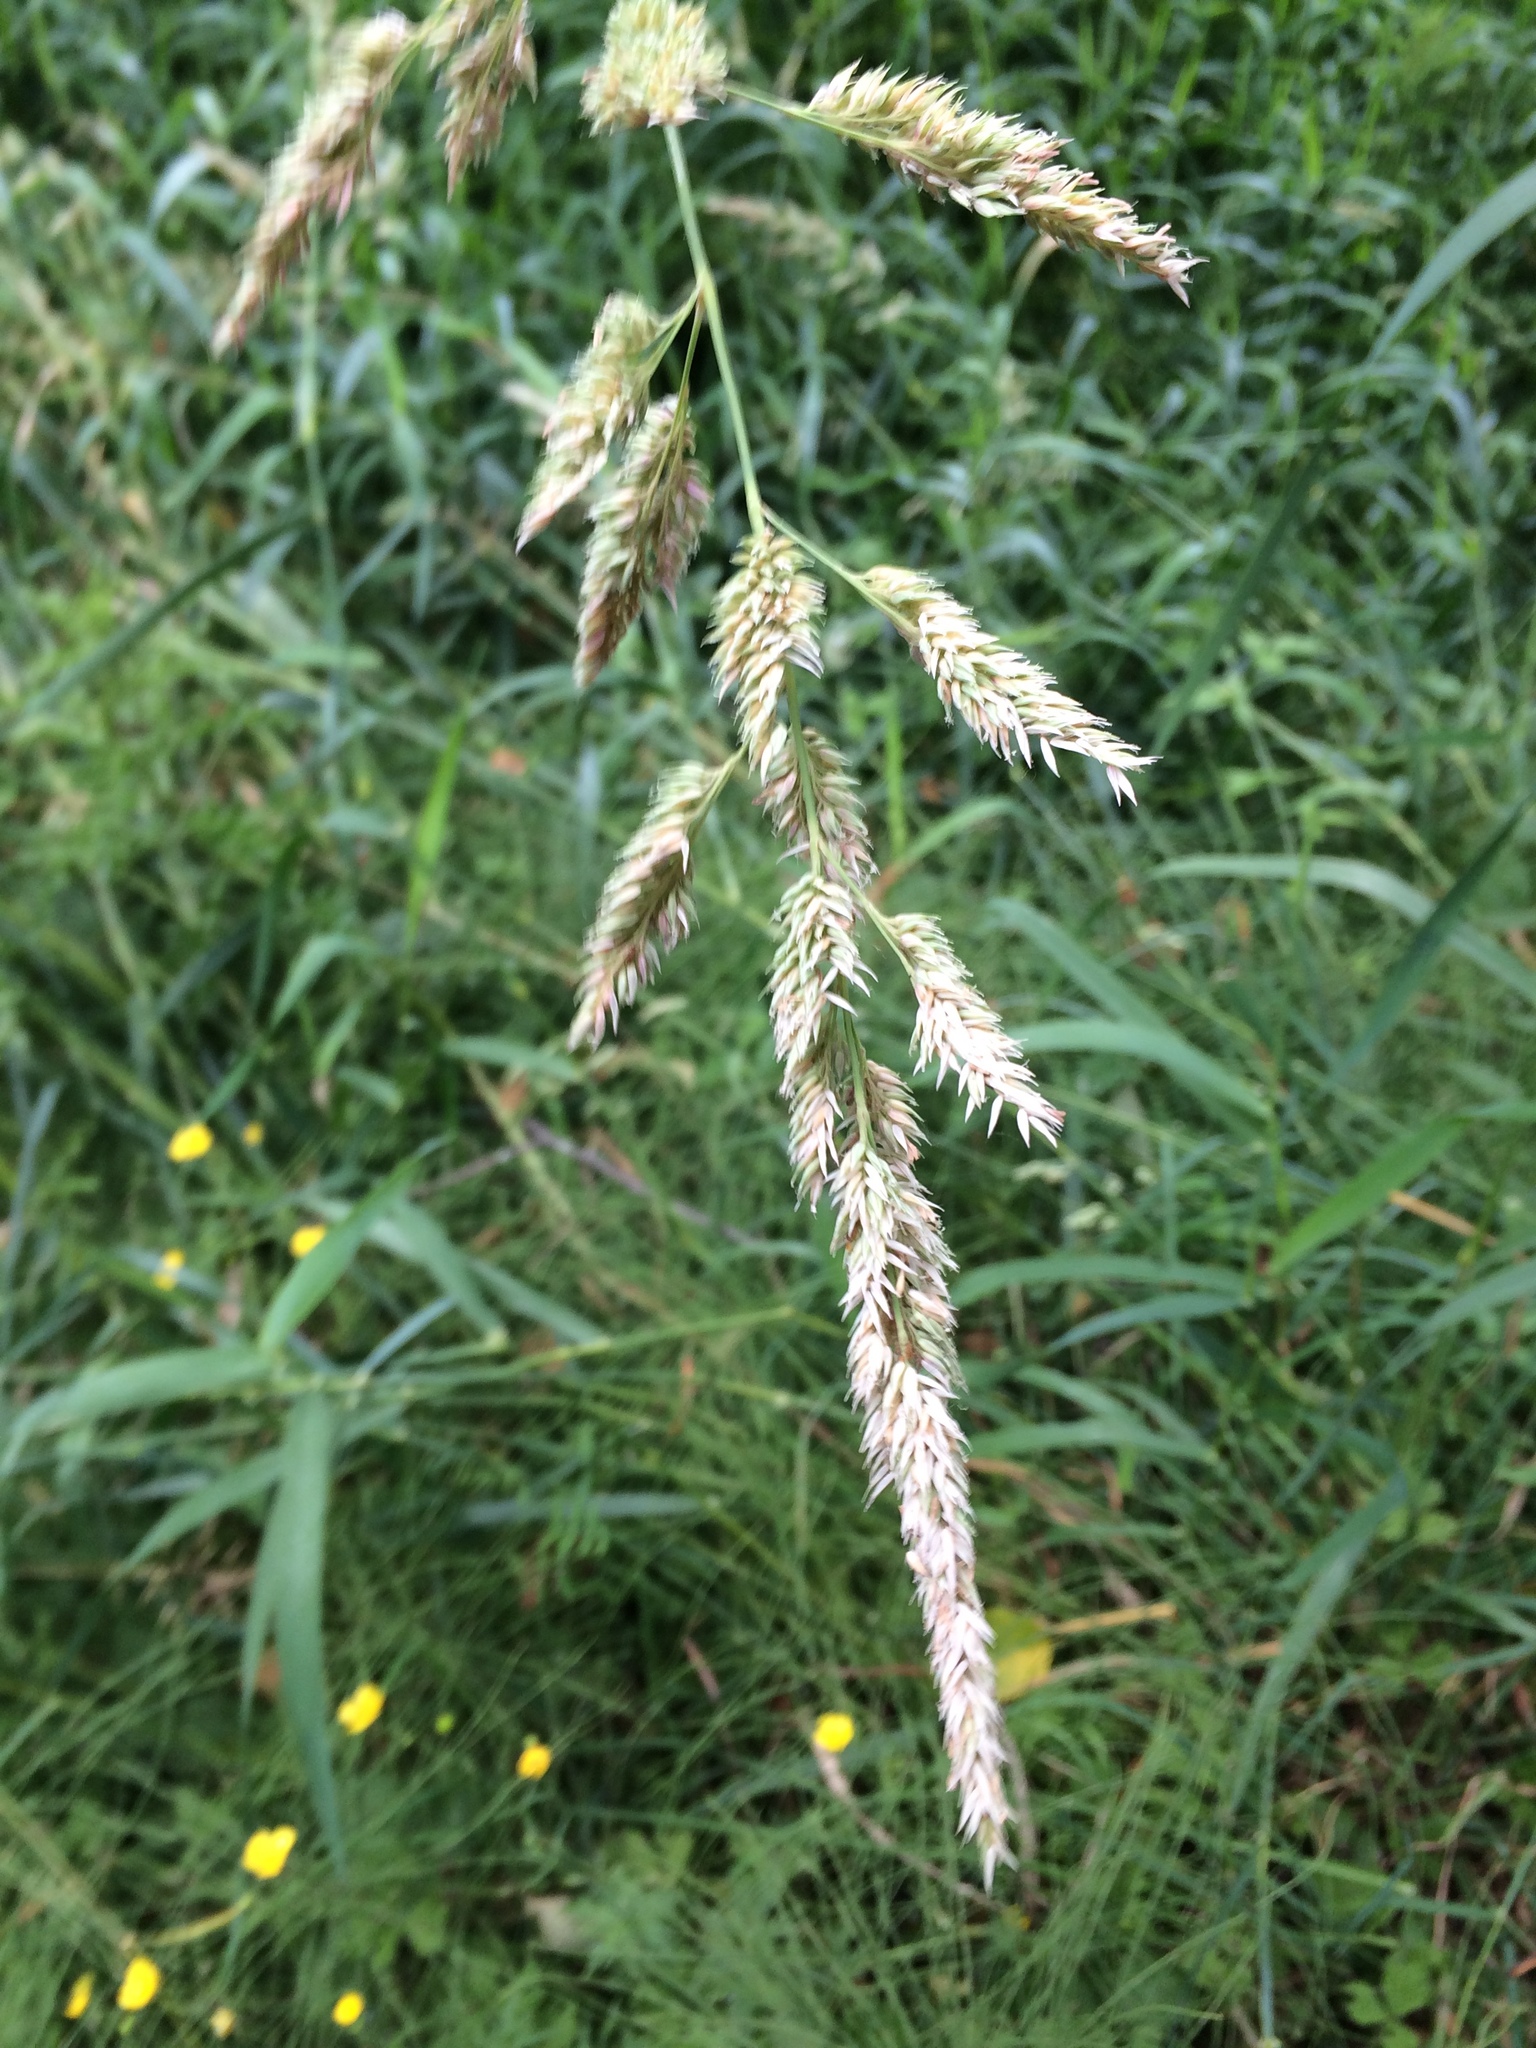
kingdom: Plantae
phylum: Tracheophyta
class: Liliopsida
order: Poales
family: Poaceae
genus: Phalaris
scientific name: Phalaris arundinacea
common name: Reed canary-grass
